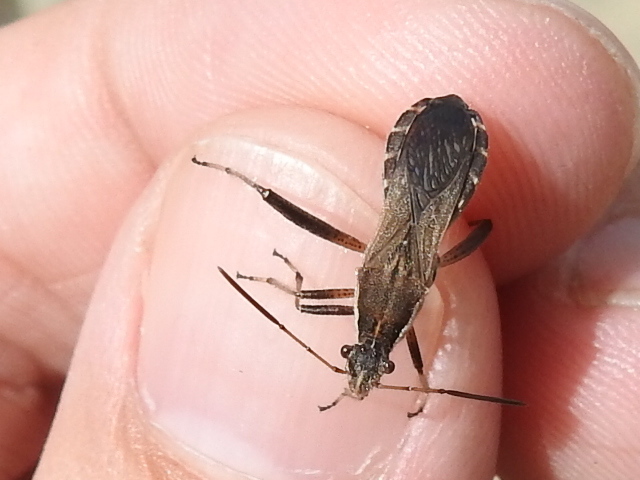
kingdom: Animalia
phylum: Arthropoda
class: Insecta
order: Hemiptera
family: Alydidae
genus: Alydus
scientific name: Alydus pilosulus
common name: Broad-headed bug
